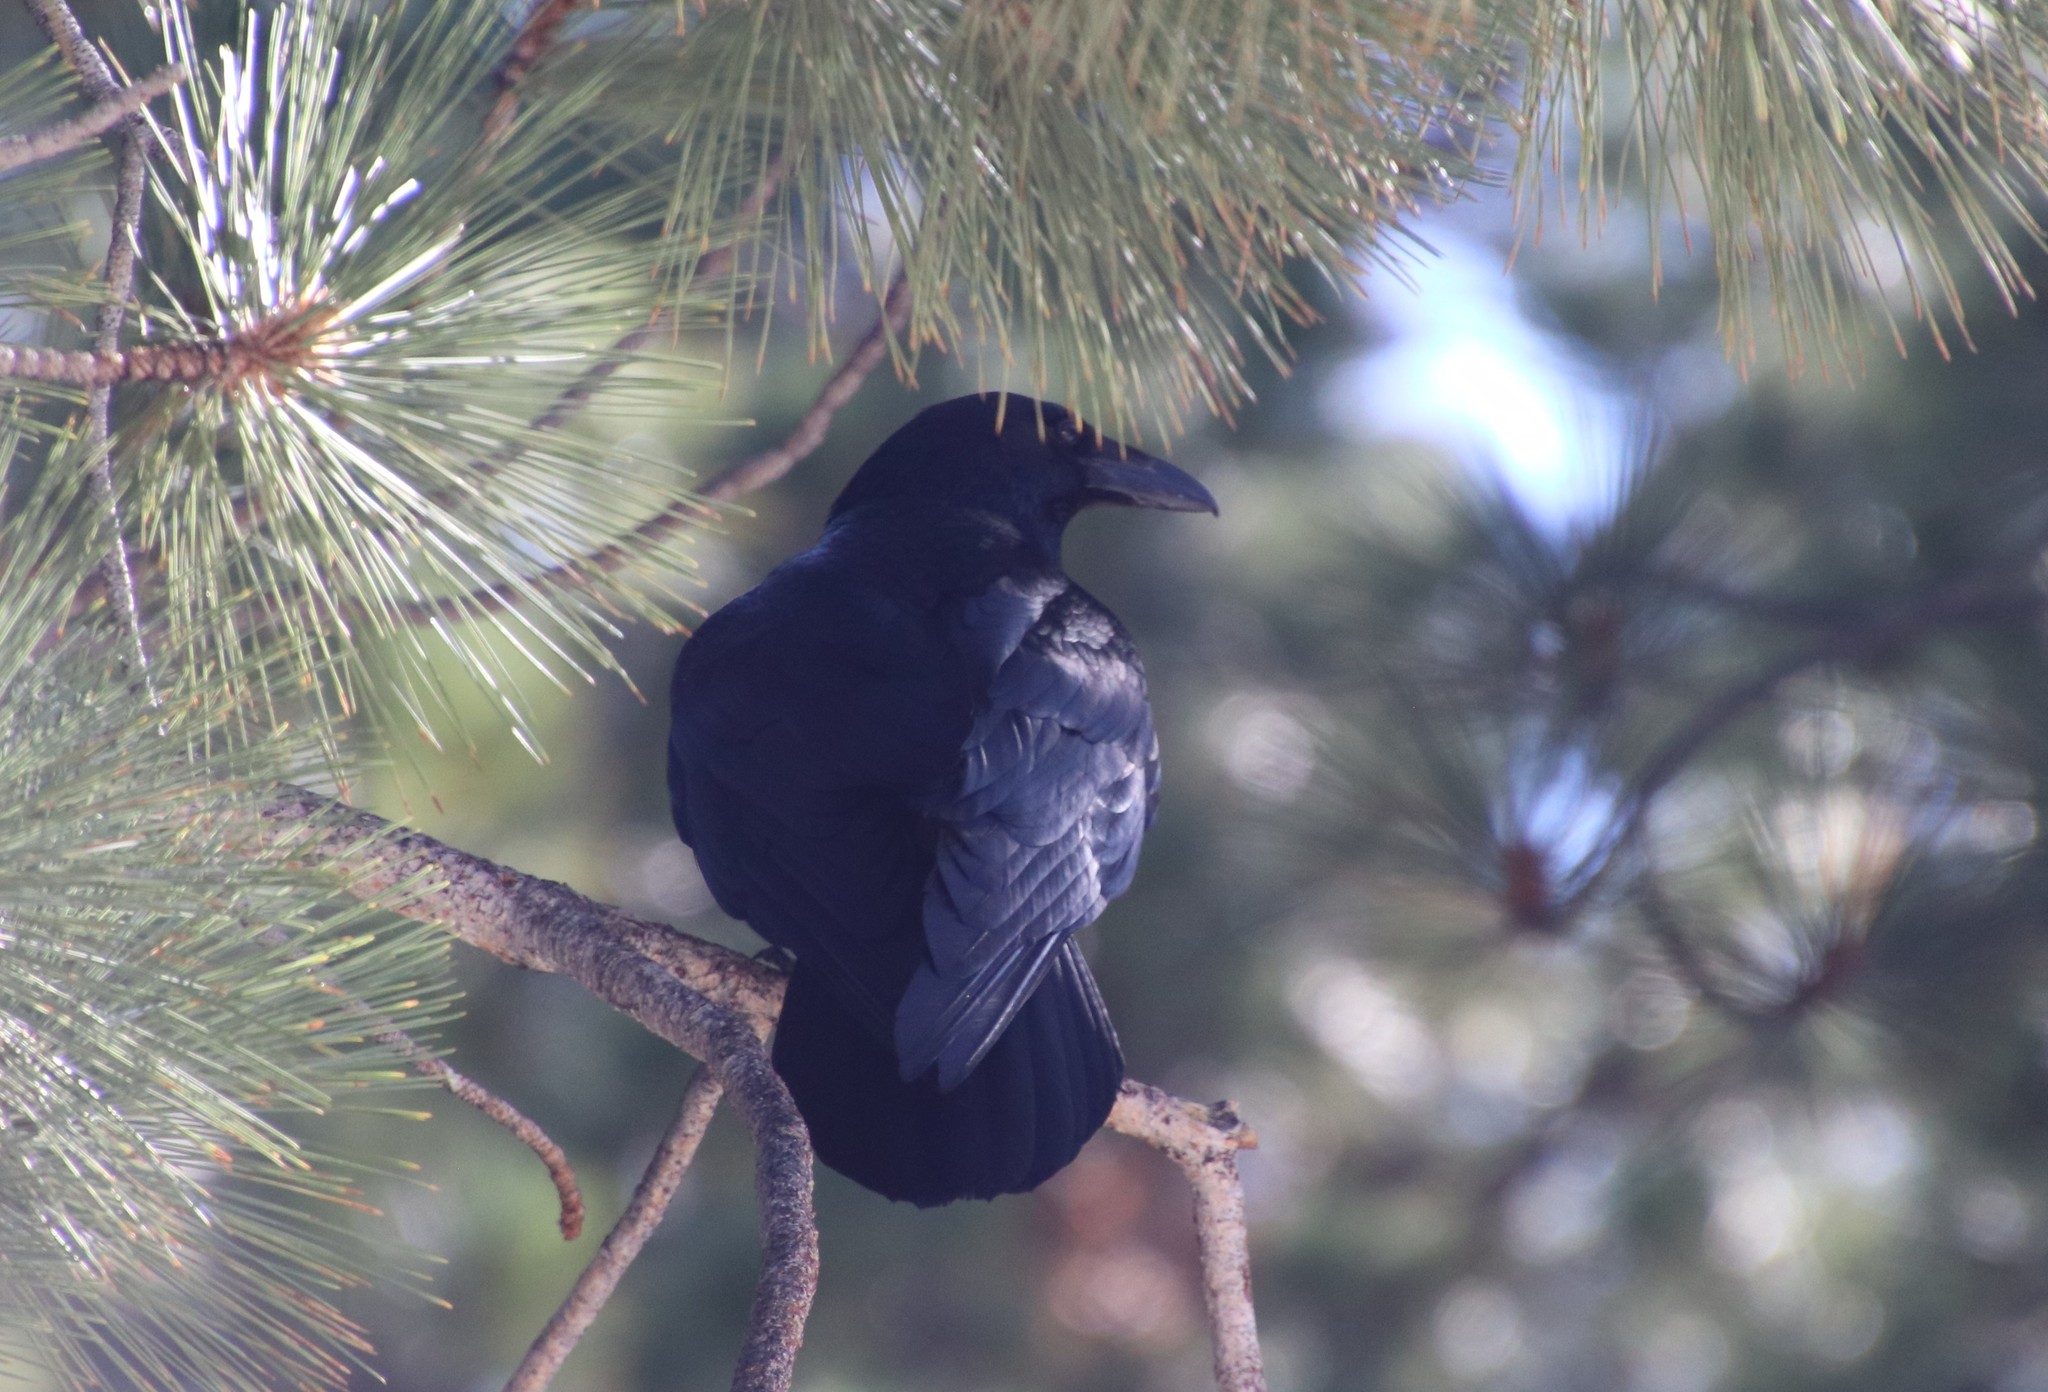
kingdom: Animalia
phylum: Chordata
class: Aves
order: Passeriformes
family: Corvidae
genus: Corvus
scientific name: Corvus corax
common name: Common raven
